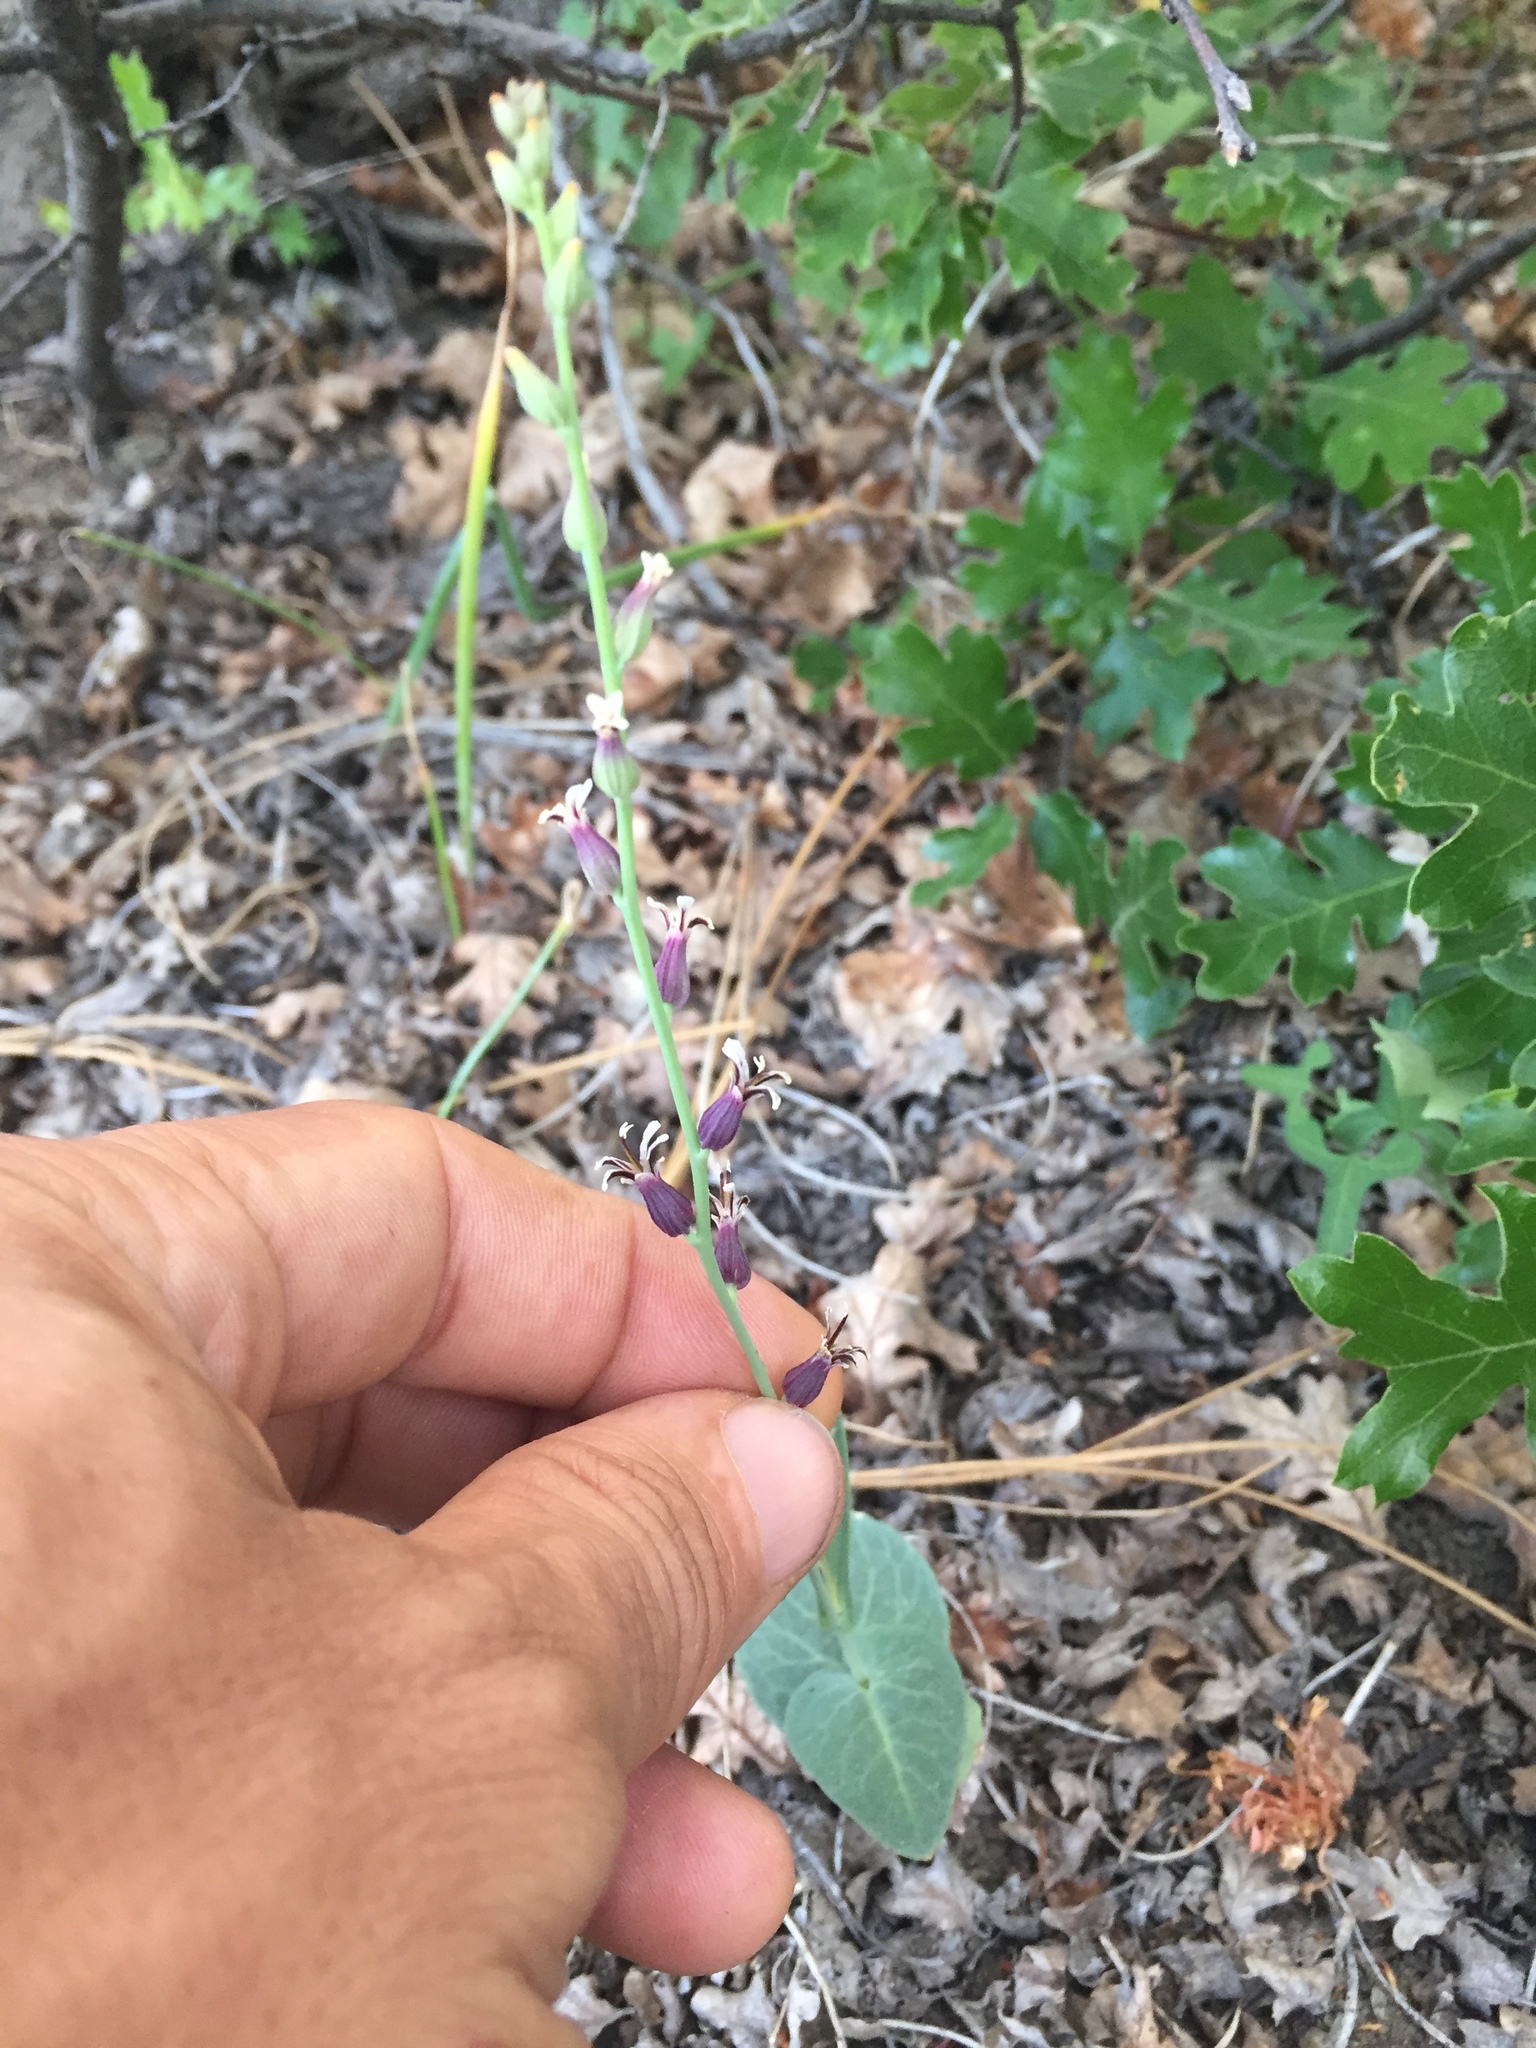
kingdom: Plantae
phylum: Tracheophyta
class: Magnoliopsida
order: Brassicales
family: Brassicaceae
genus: Streptanthus
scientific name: Streptanthus breweri
